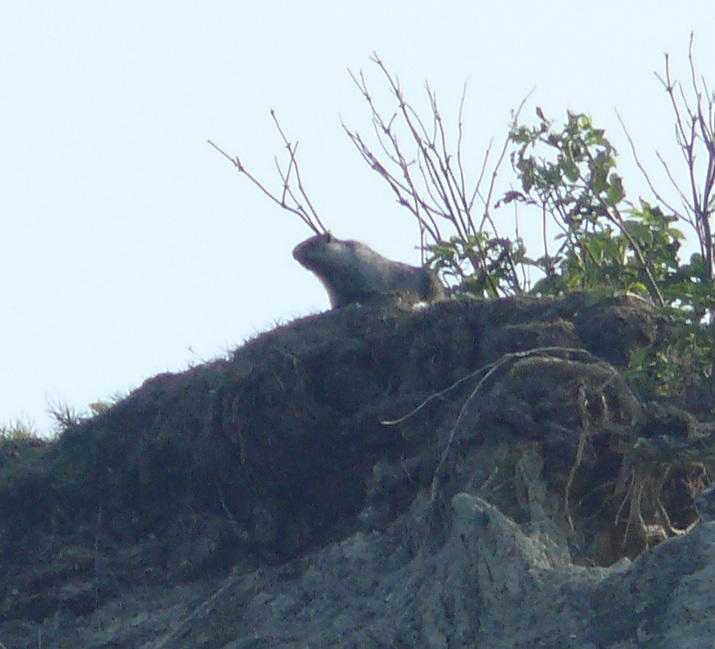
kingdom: Animalia
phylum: Chordata
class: Mammalia
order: Rodentia
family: Sciuridae
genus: Marmota
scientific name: Marmota caligata
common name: Hoary marmot
